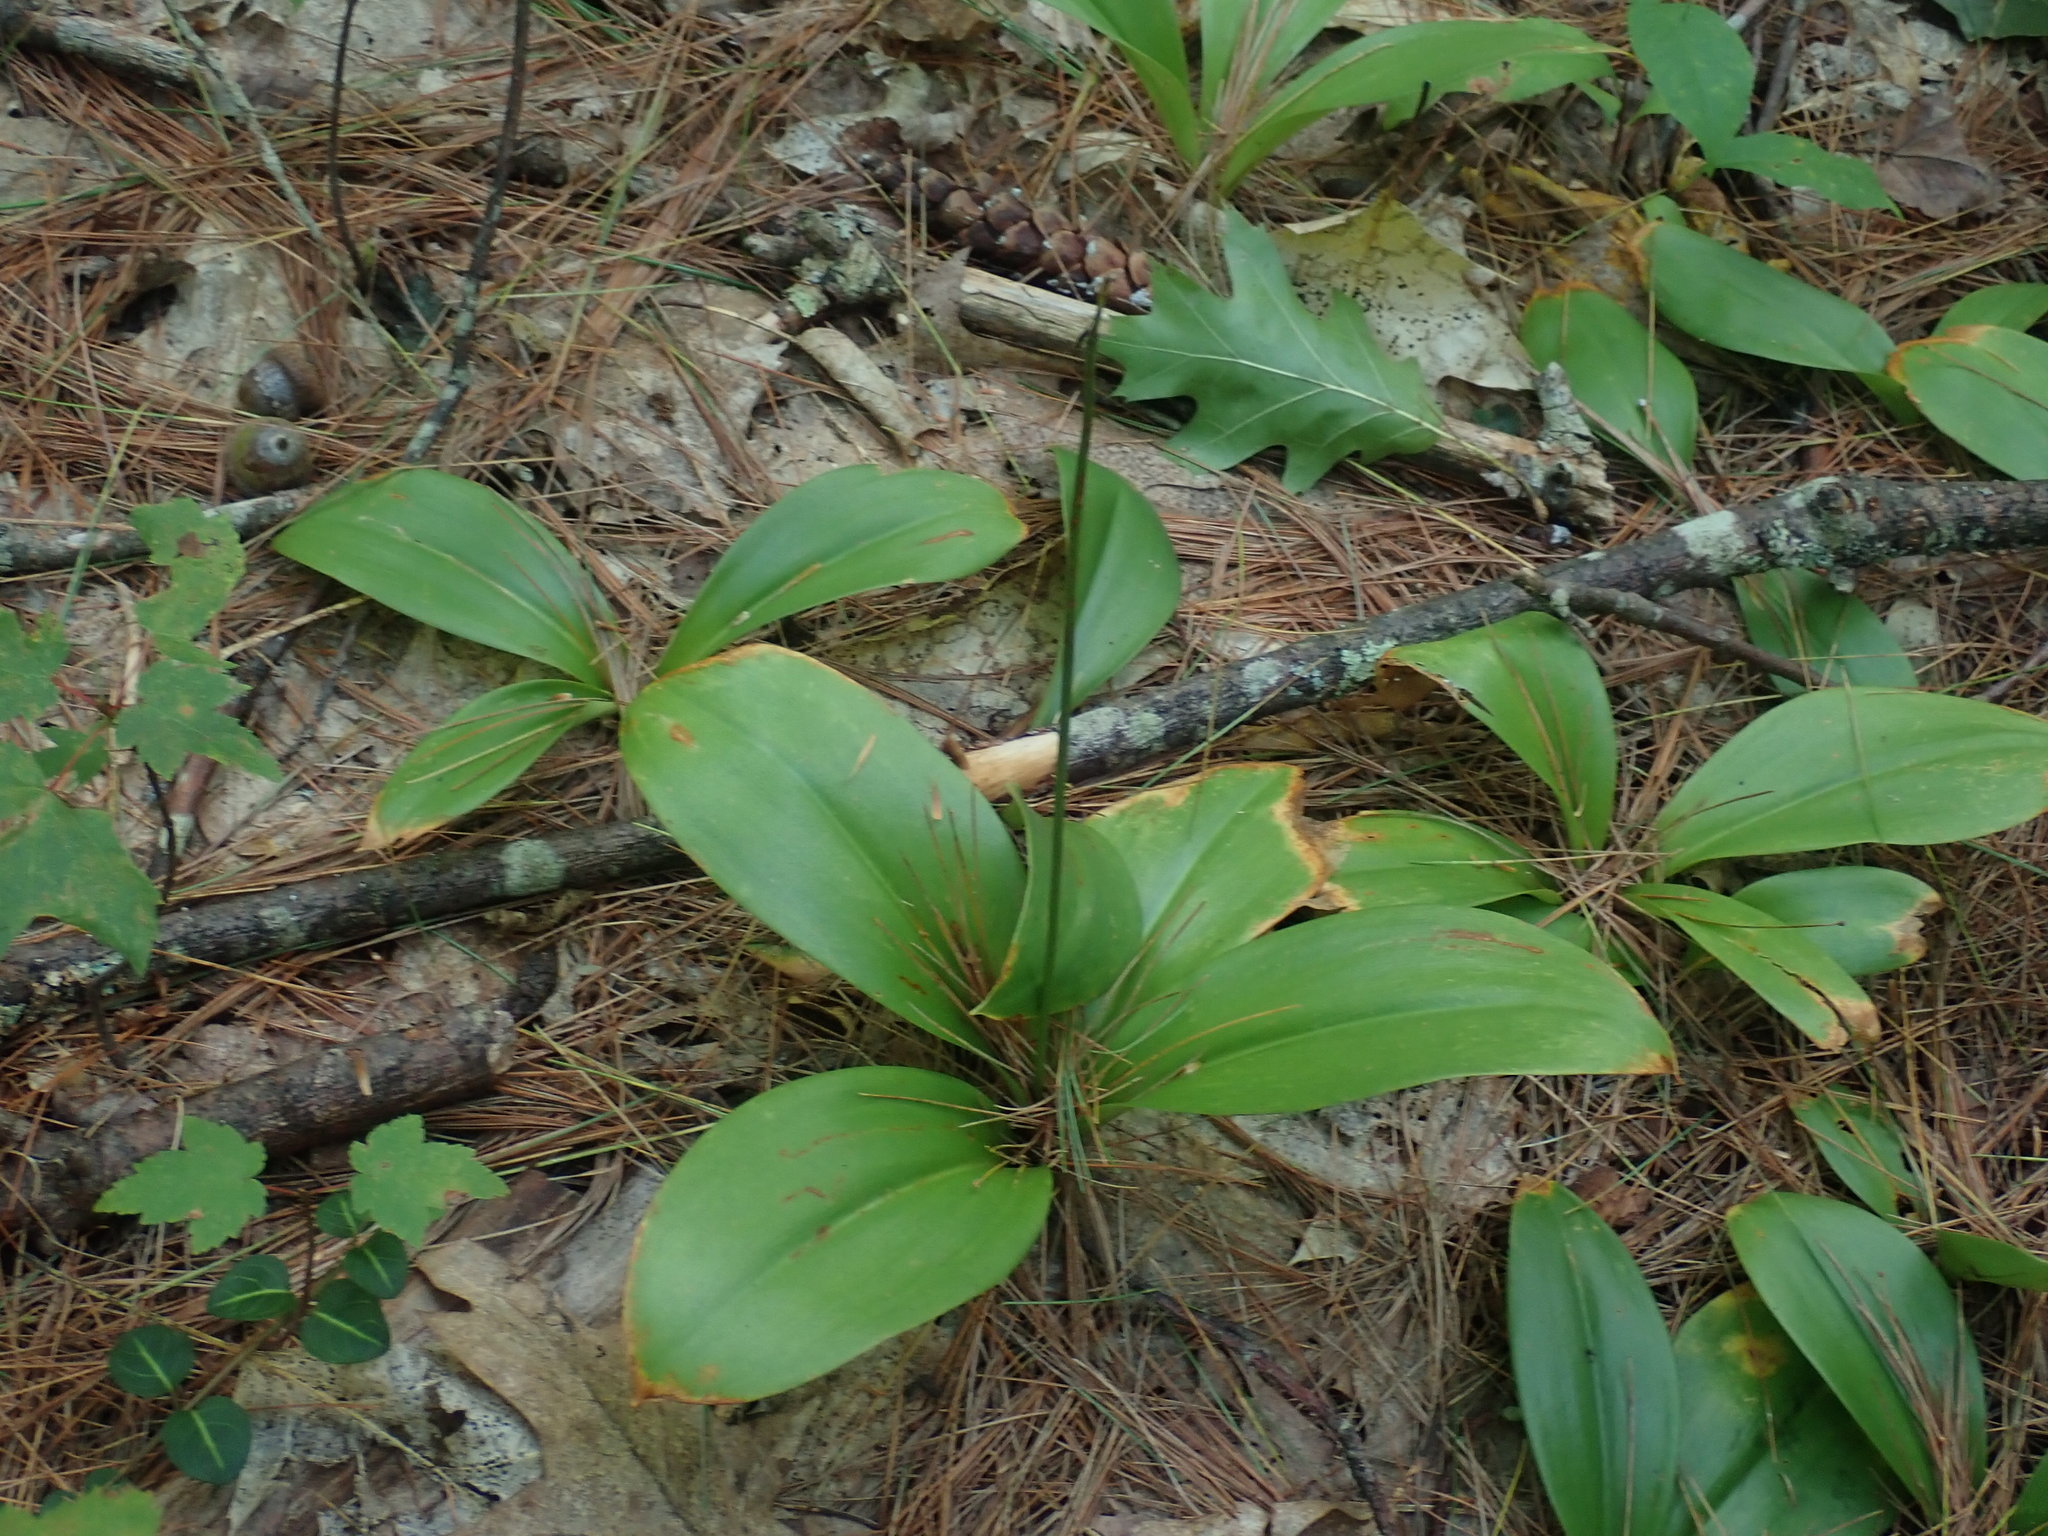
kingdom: Plantae
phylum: Tracheophyta
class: Liliopsida
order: Liliales
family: Liliaceae
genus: Clintonia
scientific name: Clintonia borealis
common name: Yellow clintonia
